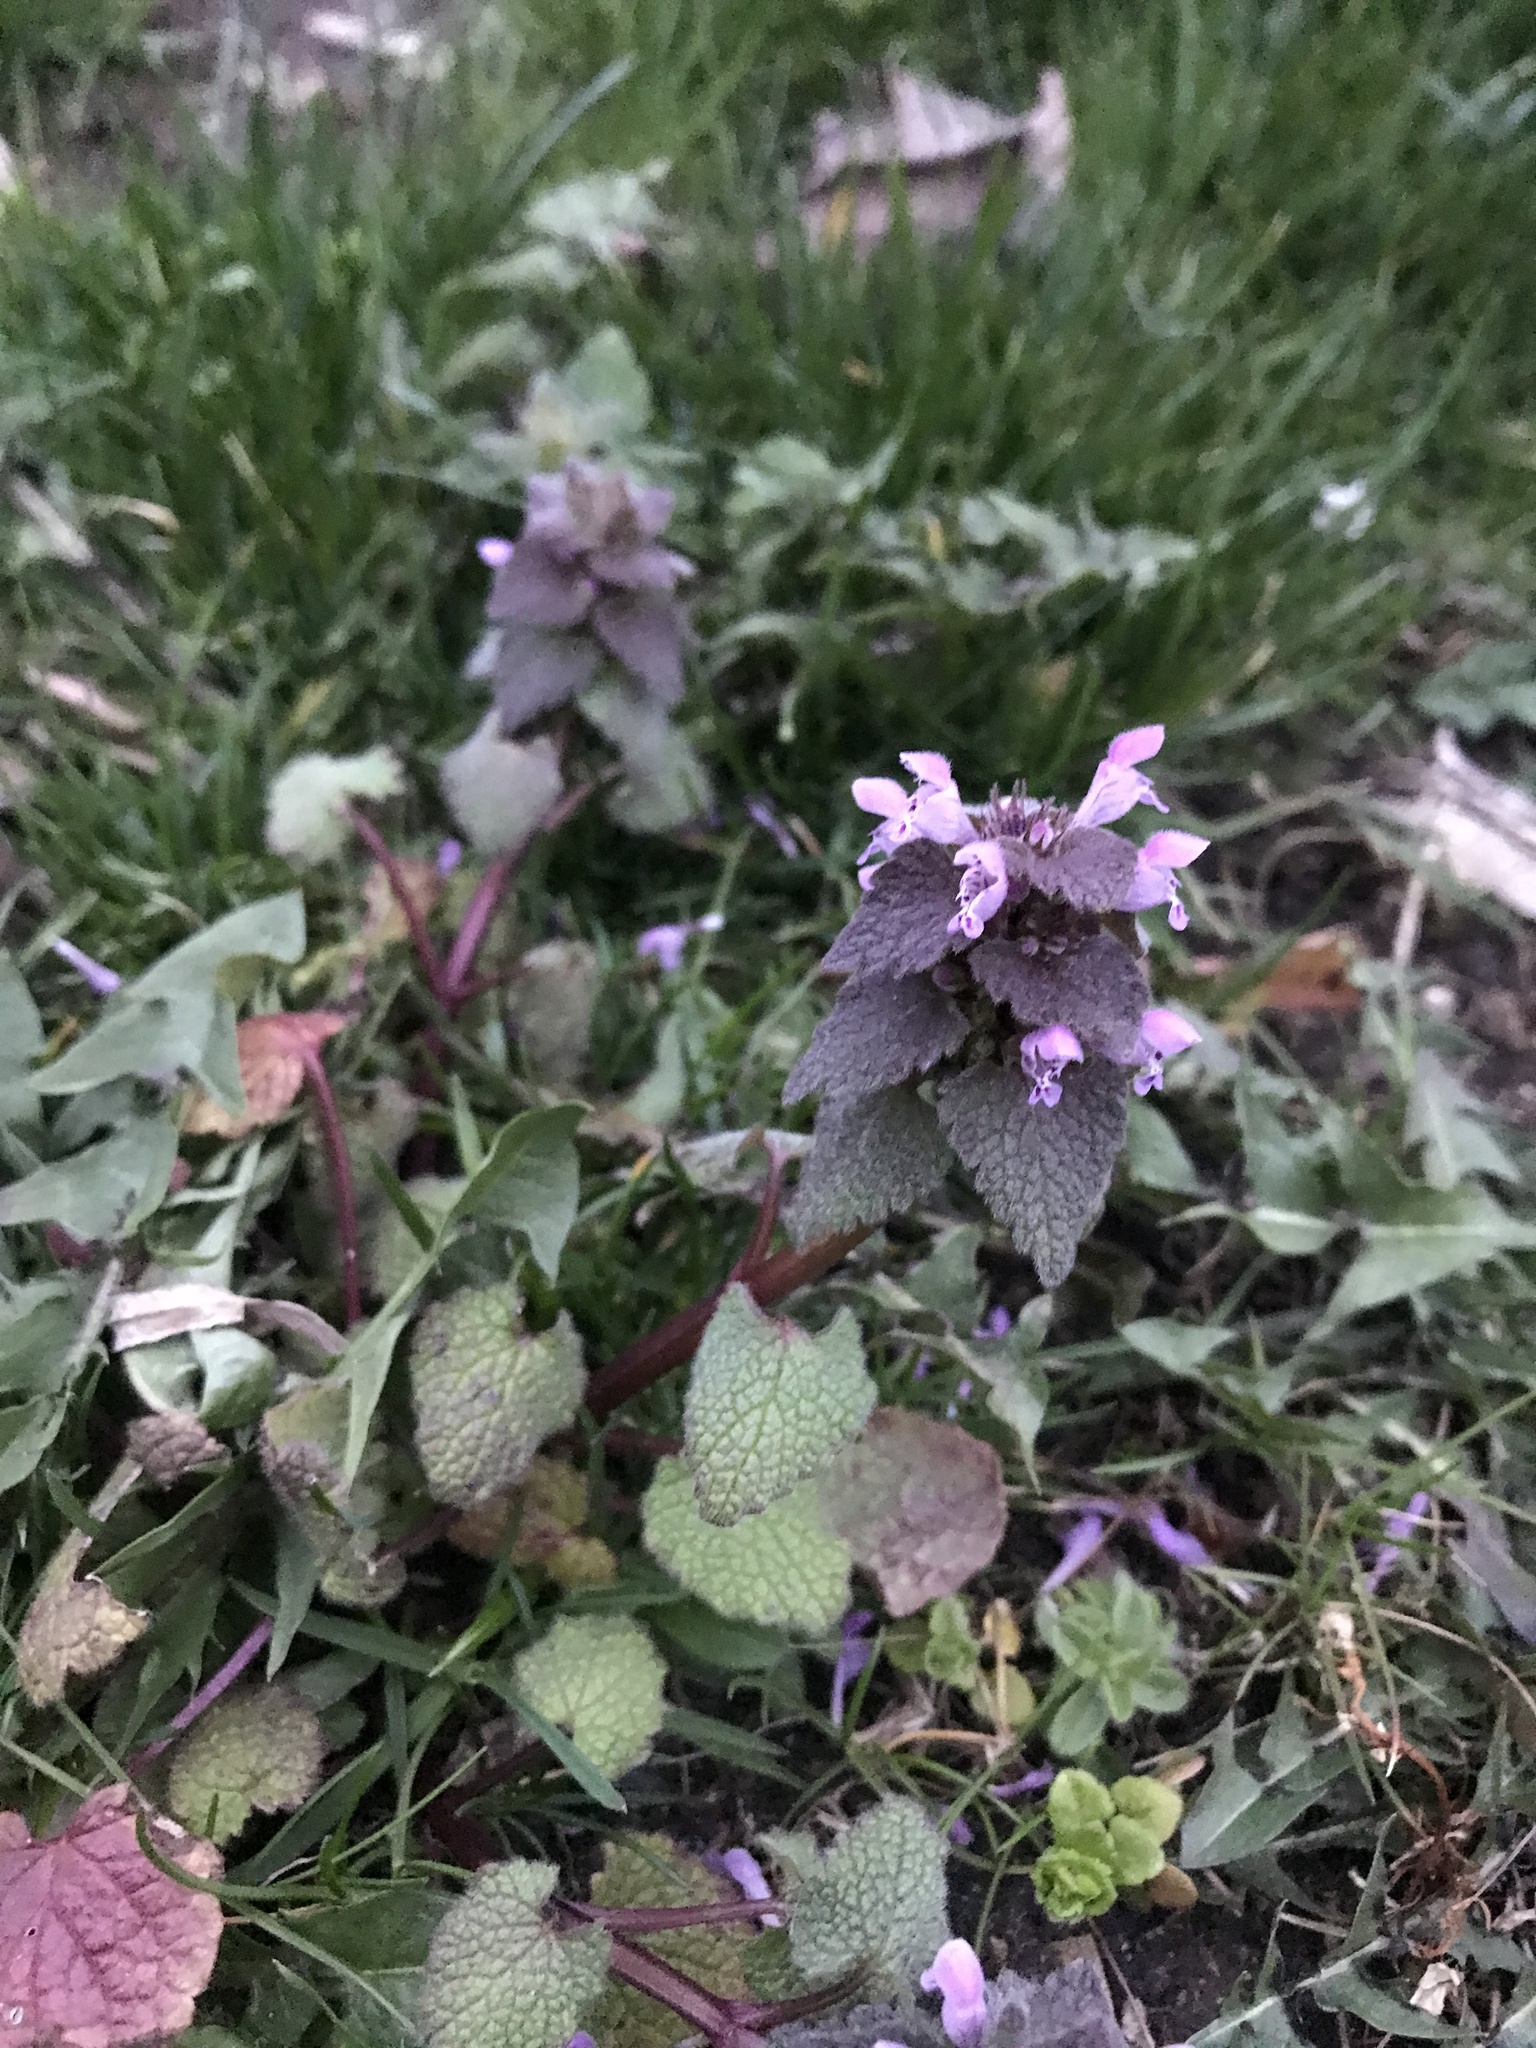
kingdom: Plantae
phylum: Tracheophyta
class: Magnoliopsida
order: Lamiales
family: Lamiaceae
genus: Lamium
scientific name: Lamium purpureum
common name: Red dead-nettle
